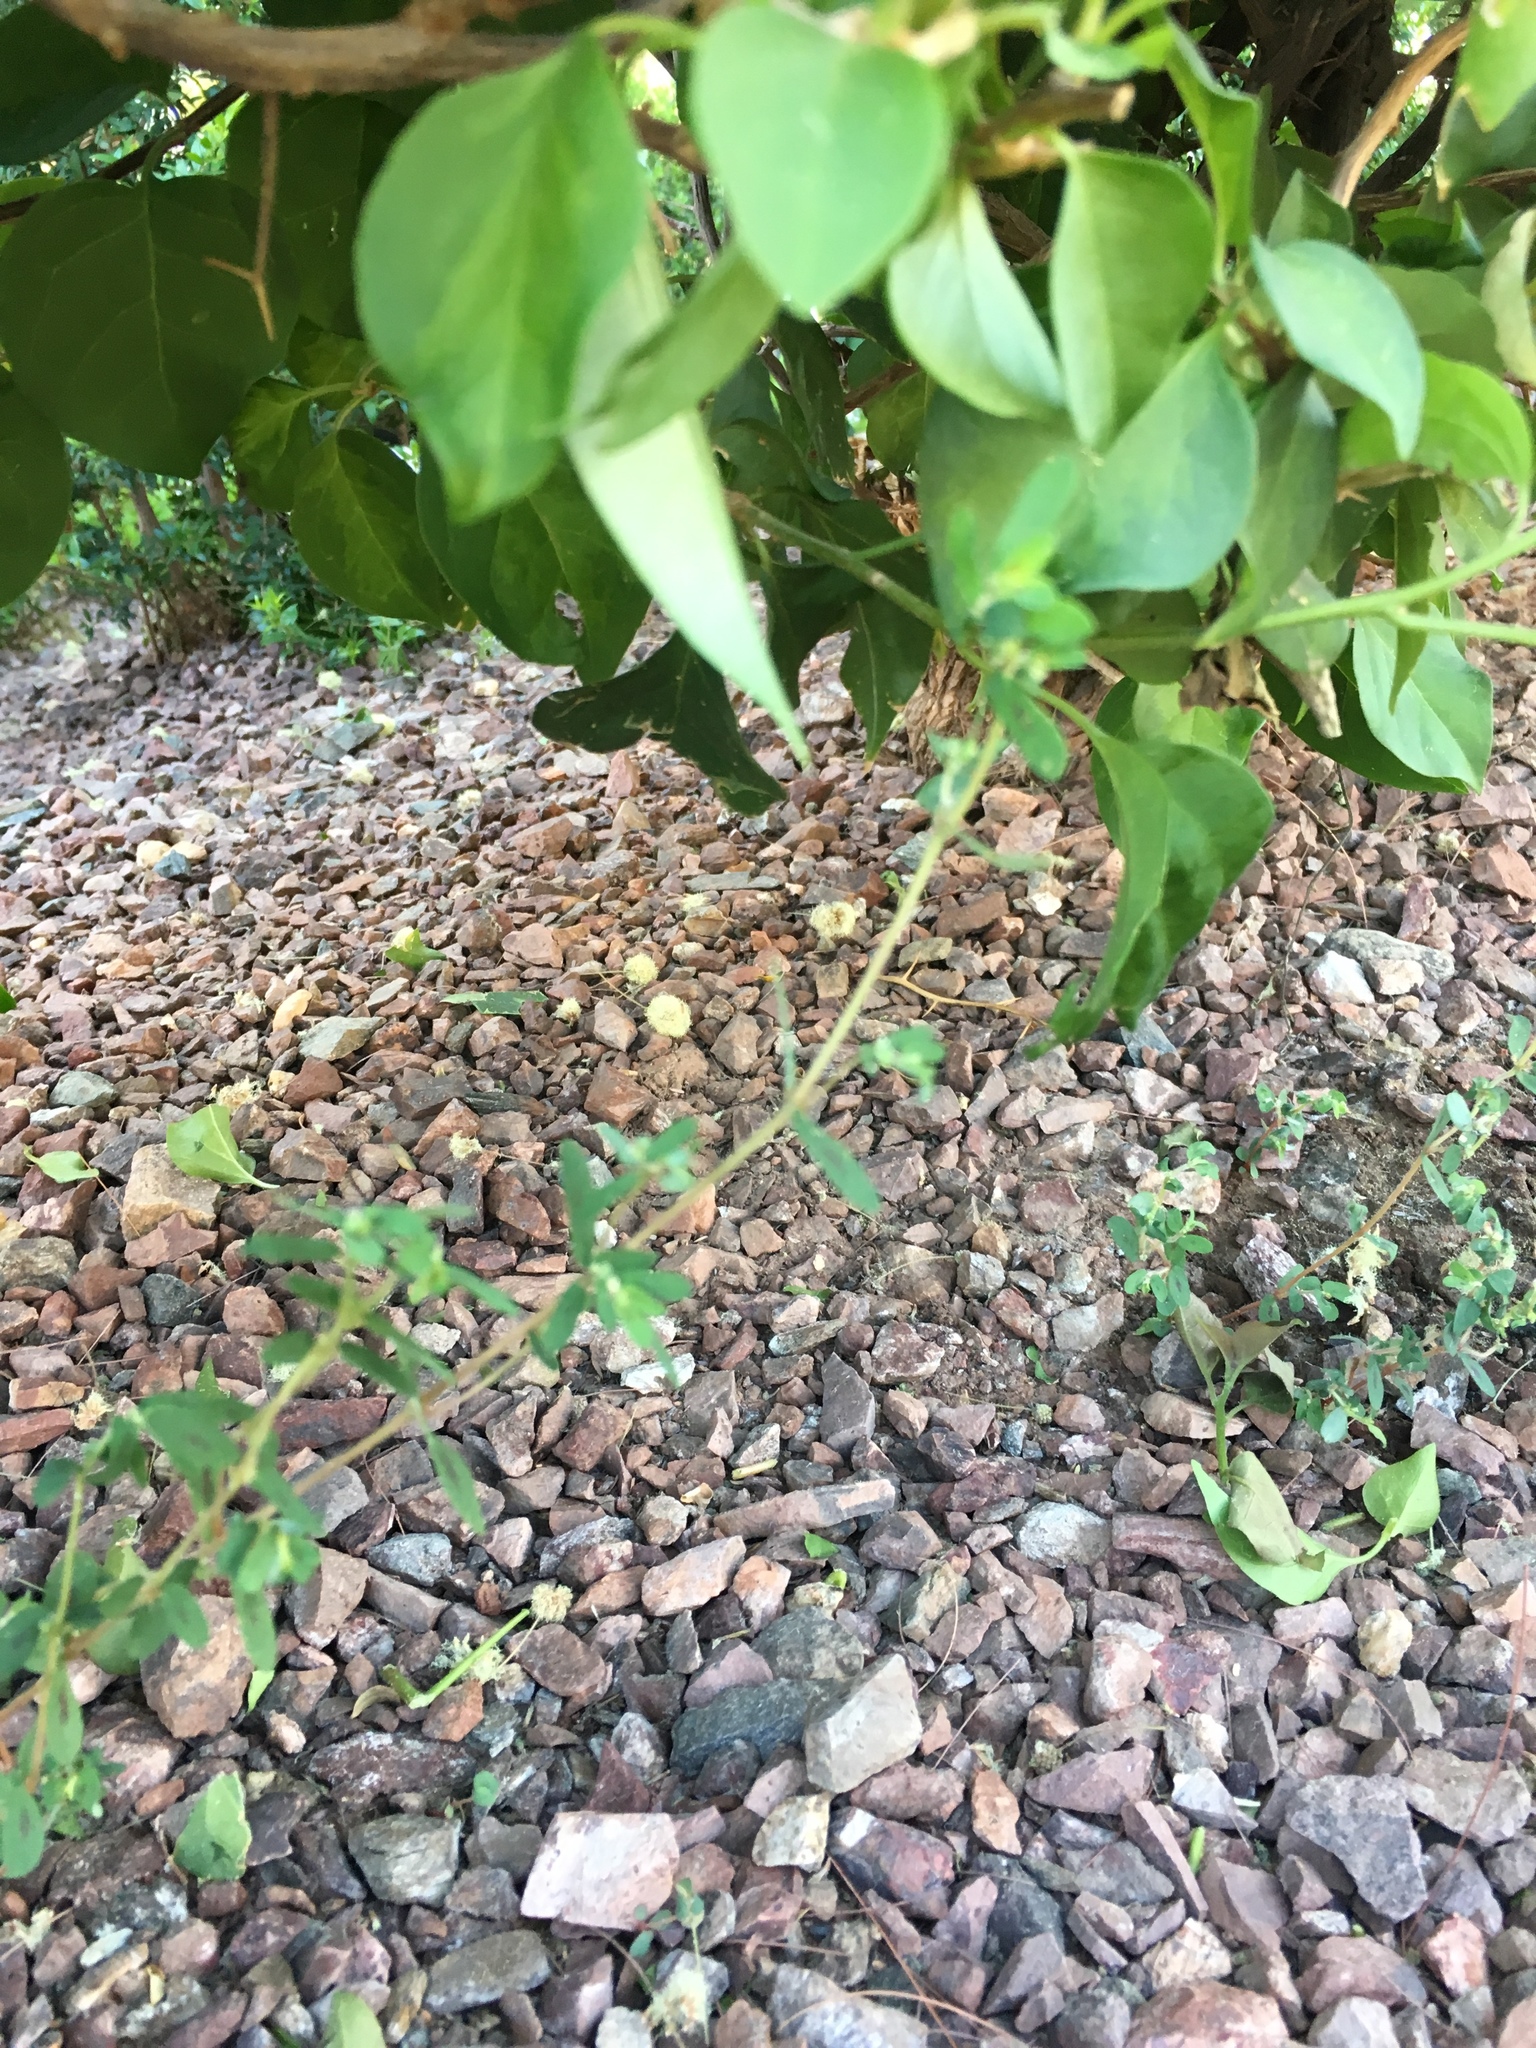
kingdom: Plantae
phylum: Tracheophyta
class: Magnoliopsida
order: Malpighiales
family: Euphorbiaceae
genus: Euphorbia
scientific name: Euphorbia maculata
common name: Spotted spurge
